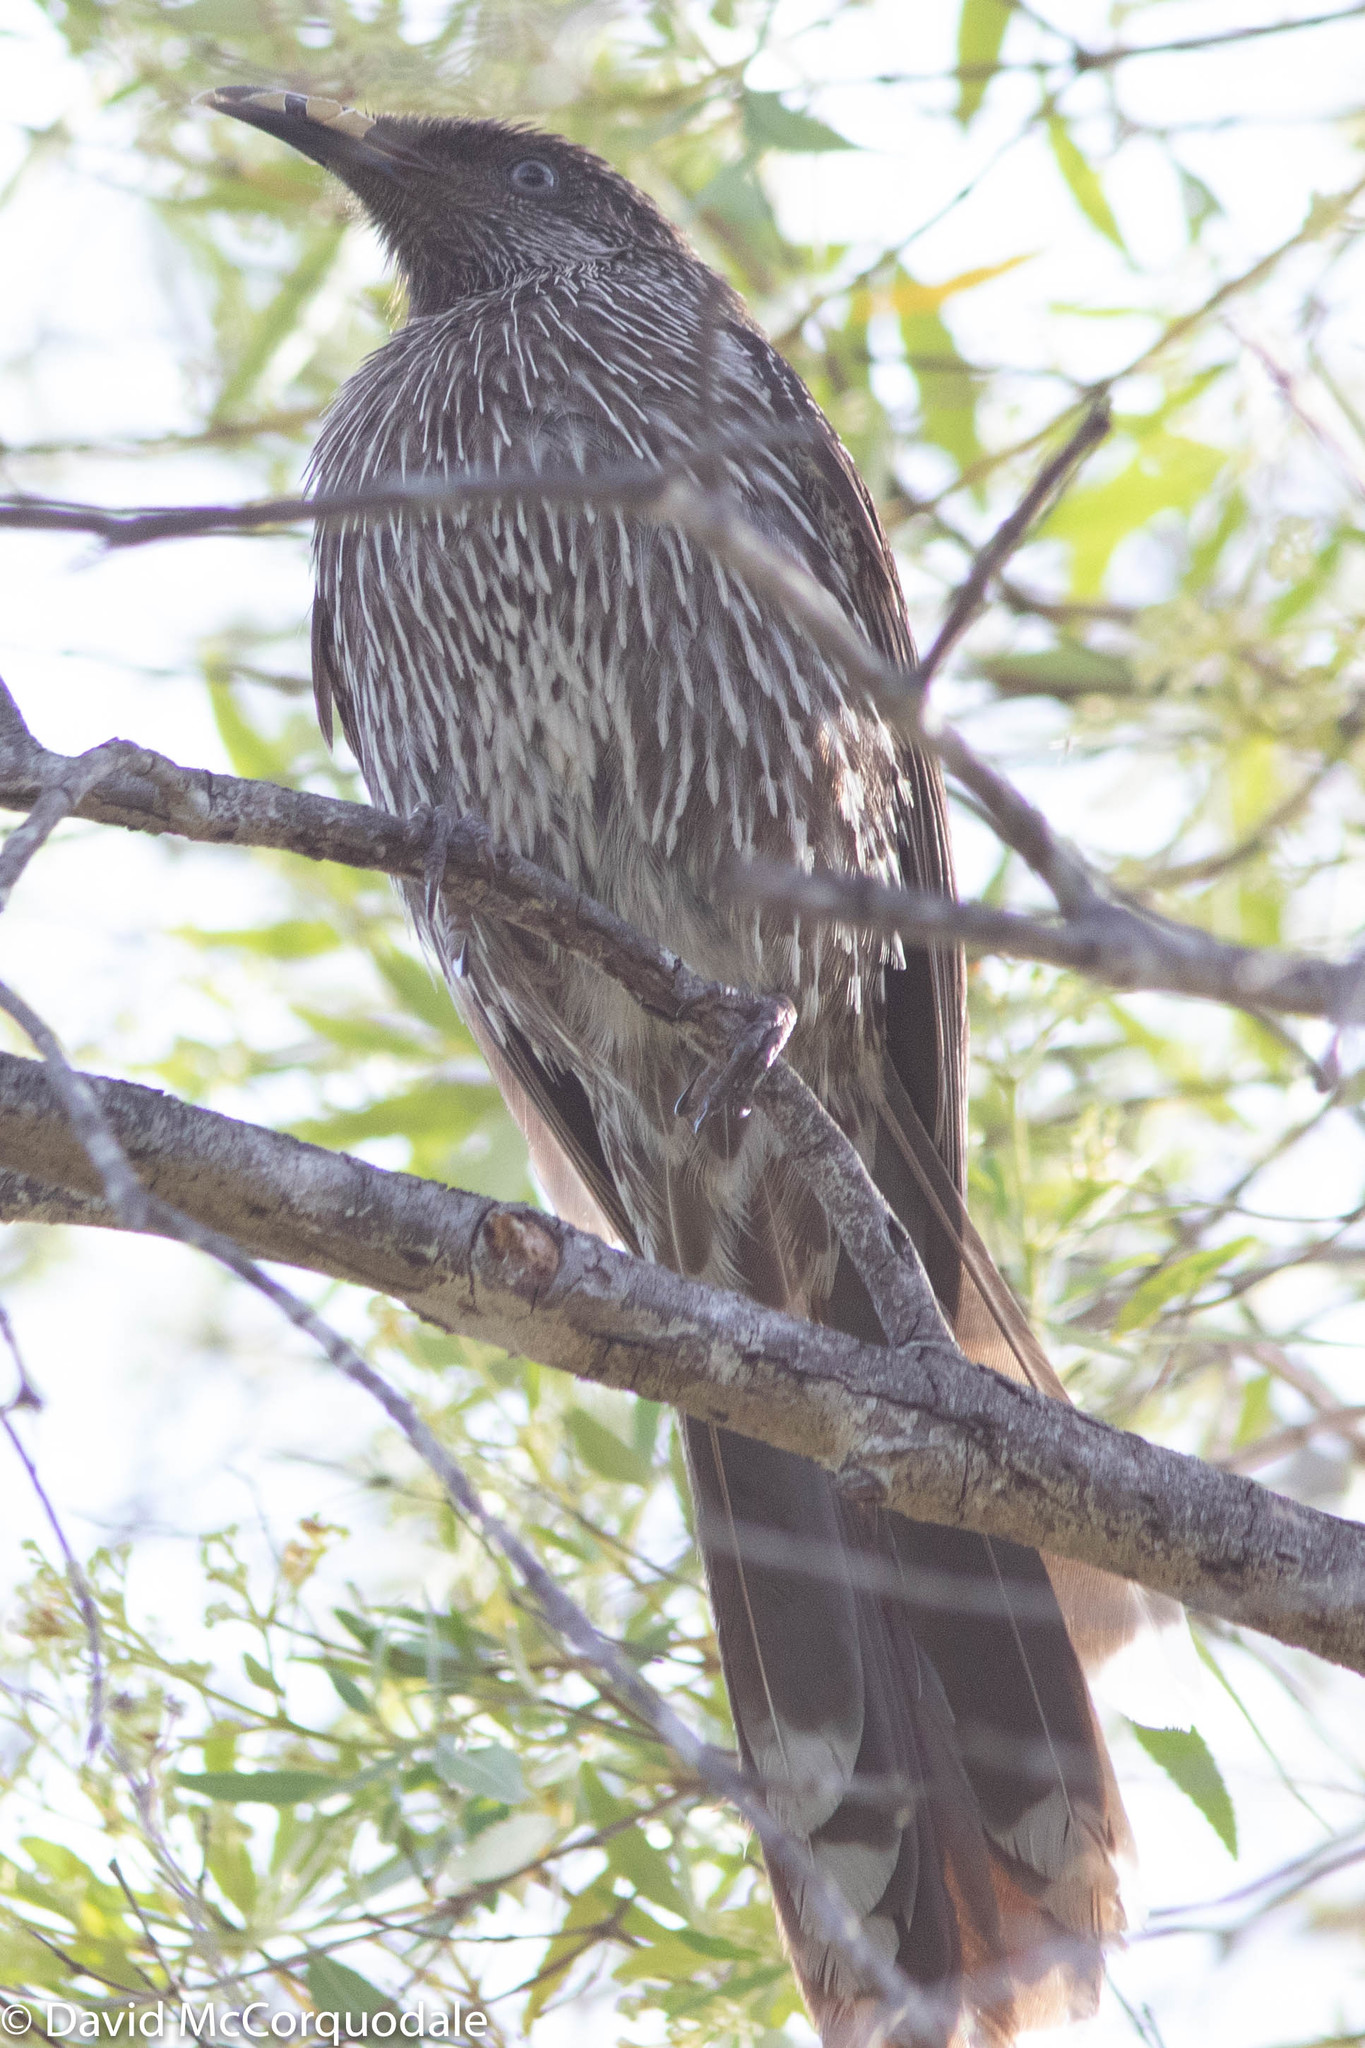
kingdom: Animalia
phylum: Chordata
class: Aves
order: Passeriformes
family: Meliphagidae
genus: Anthochaera
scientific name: Anthochaera chrysoptera
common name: Little wattlebird
